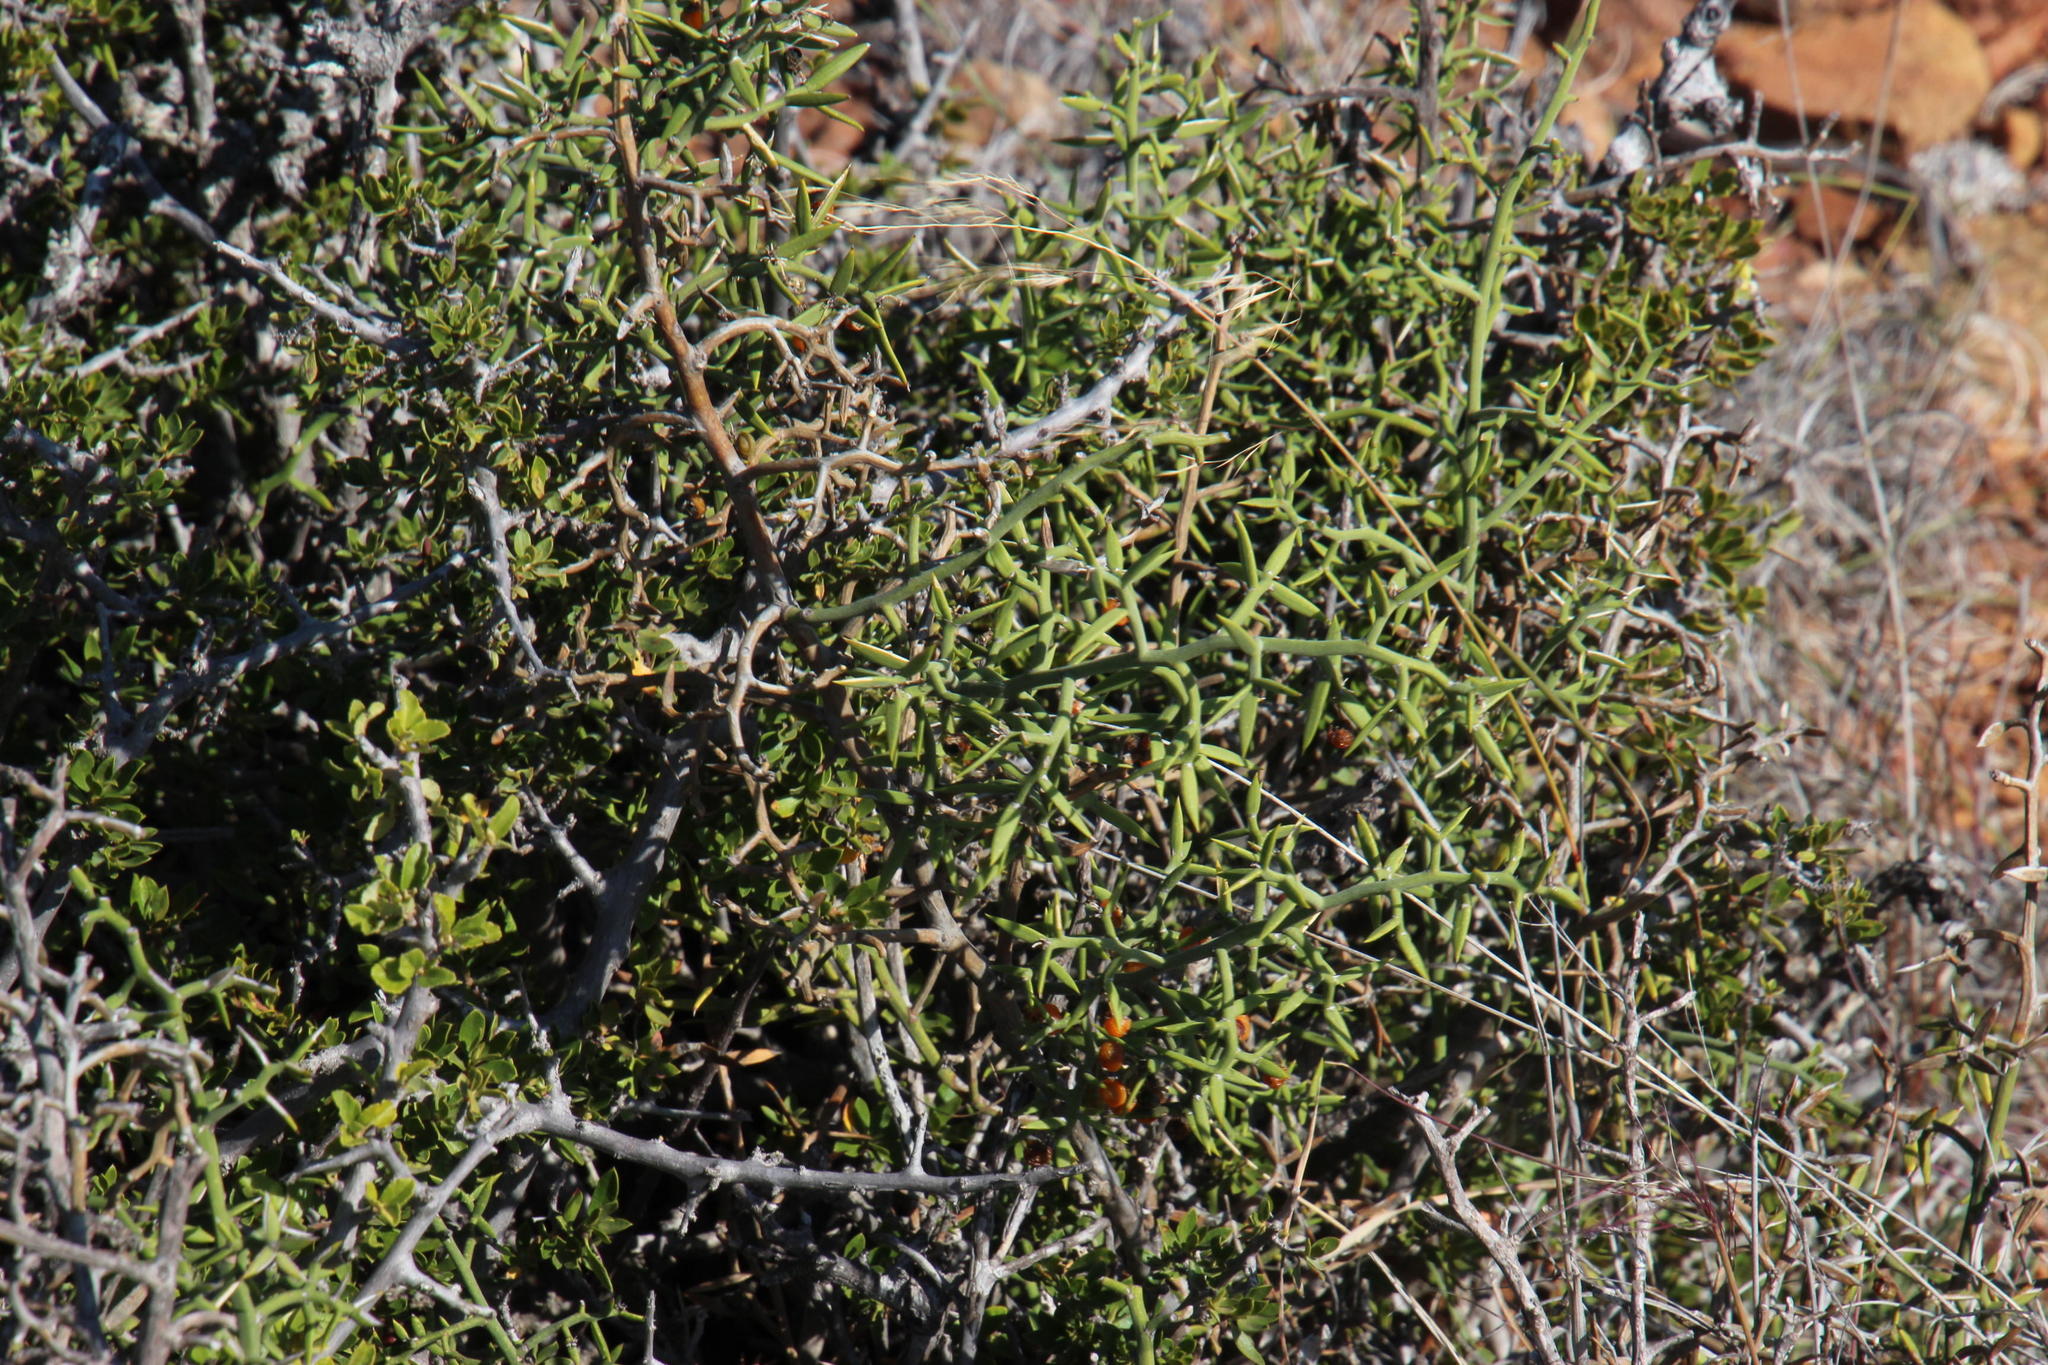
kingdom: Plantae
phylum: Tracheophyta
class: Liliopsida
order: Asparagales
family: Asparagaceae
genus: Asparagus
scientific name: Asparagus striatus
